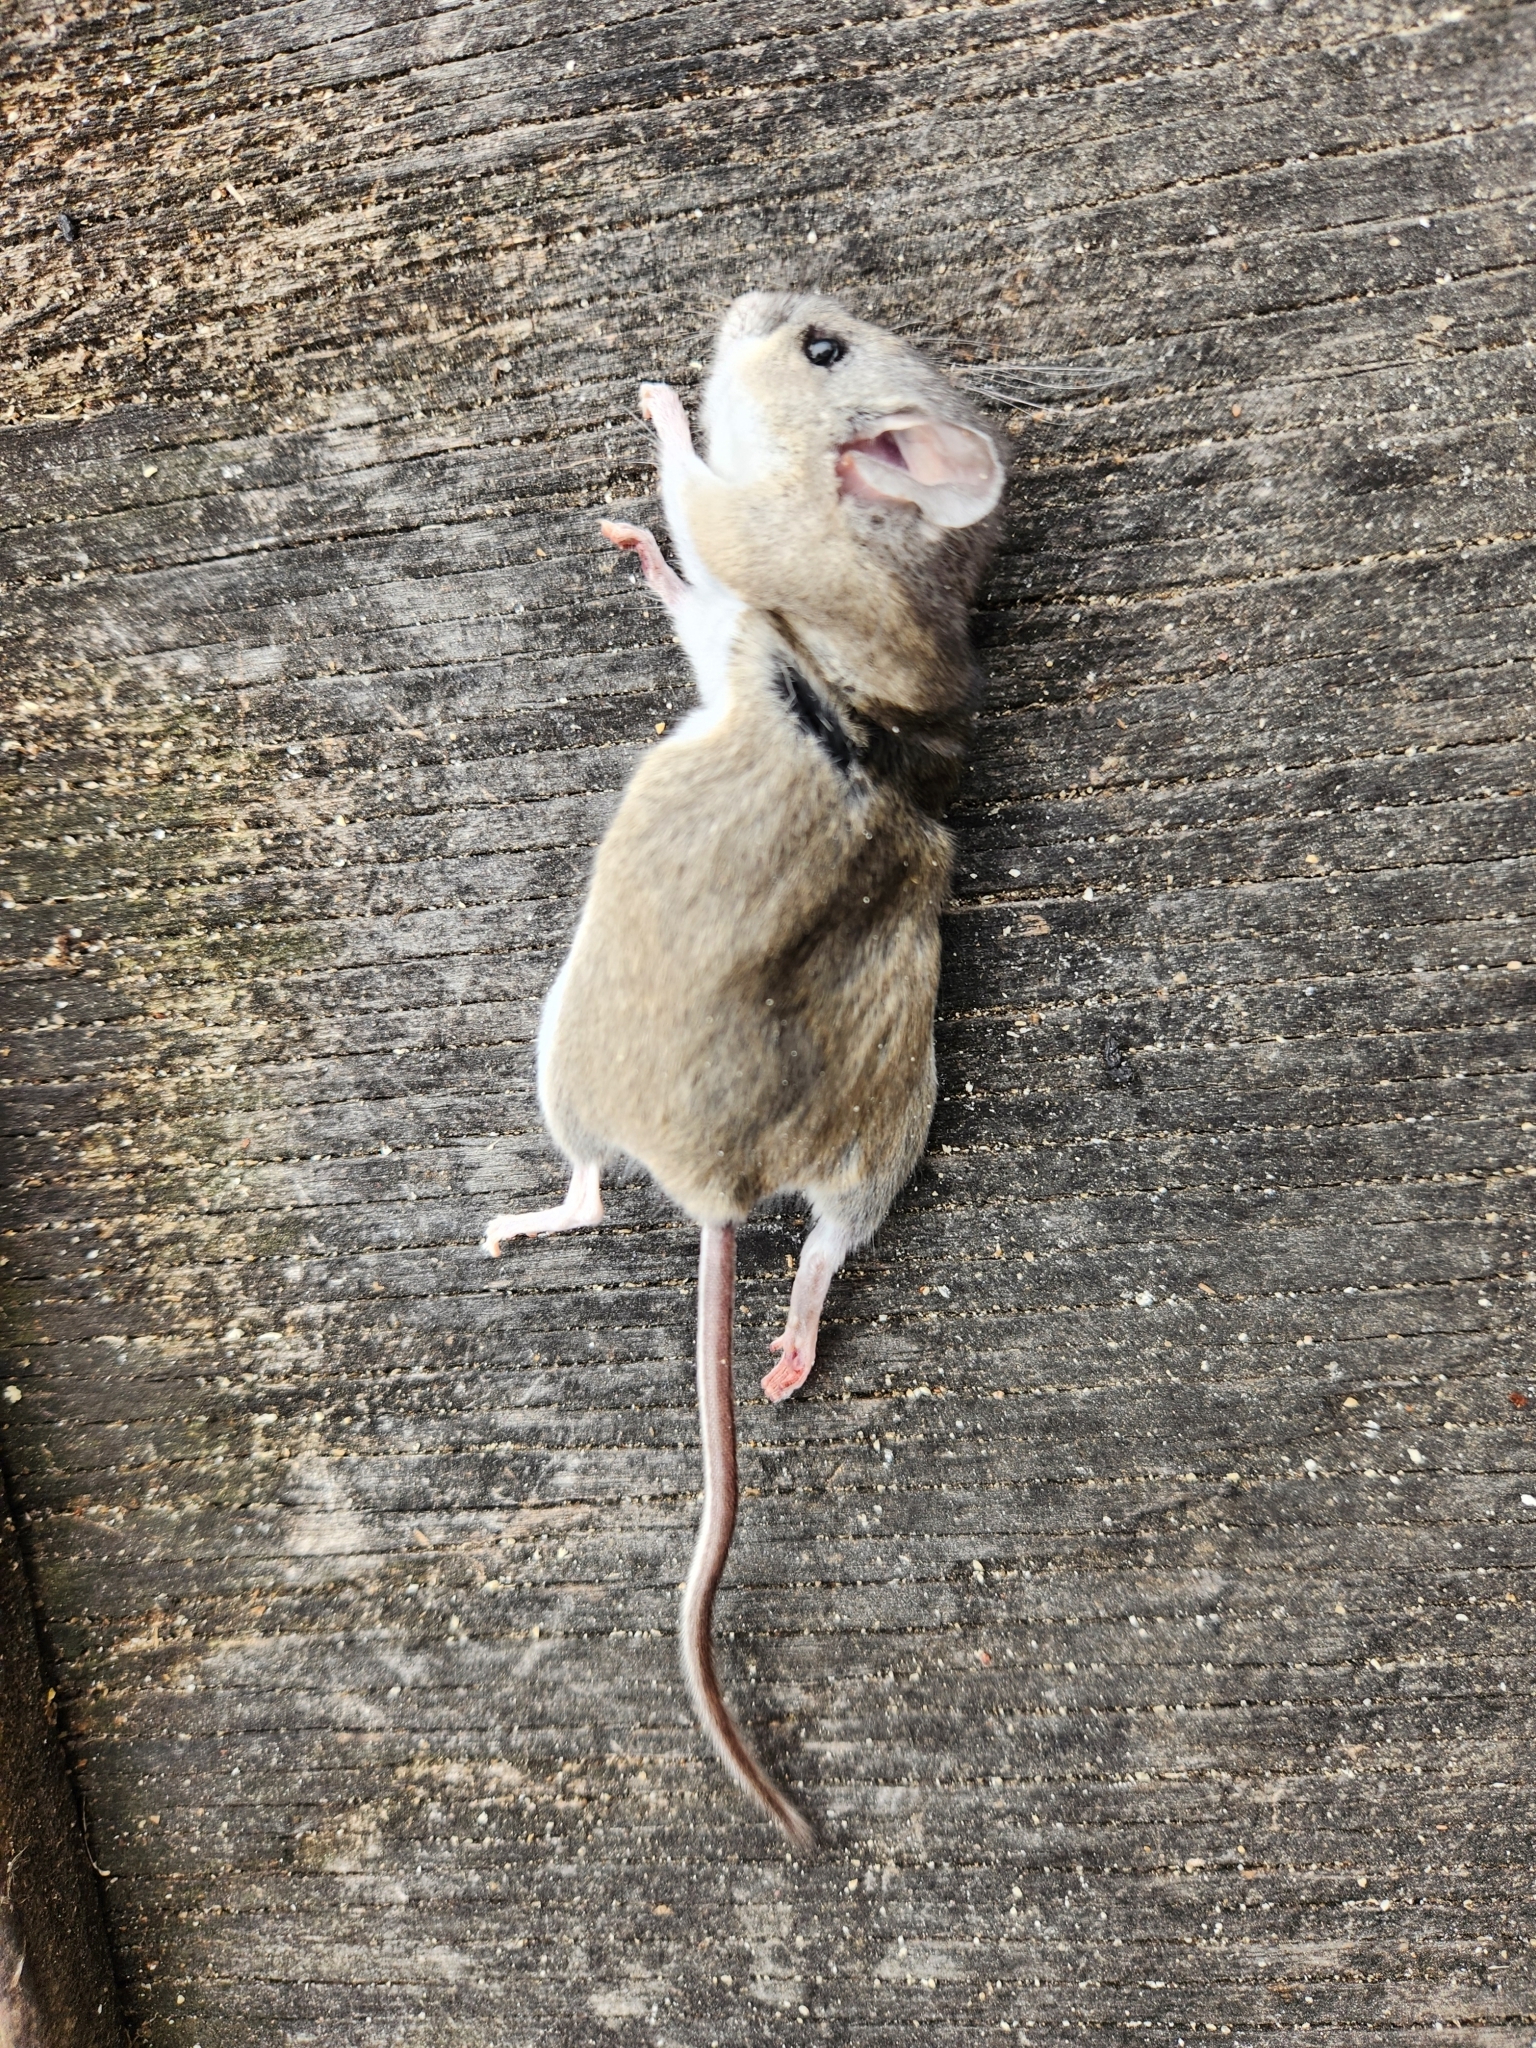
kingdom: Animalia
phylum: Chordata
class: Mammalia
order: Rodentia
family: Cricetidae
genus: Peromyscus
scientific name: Peromyscus pectoralis
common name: White-ankled mouse
